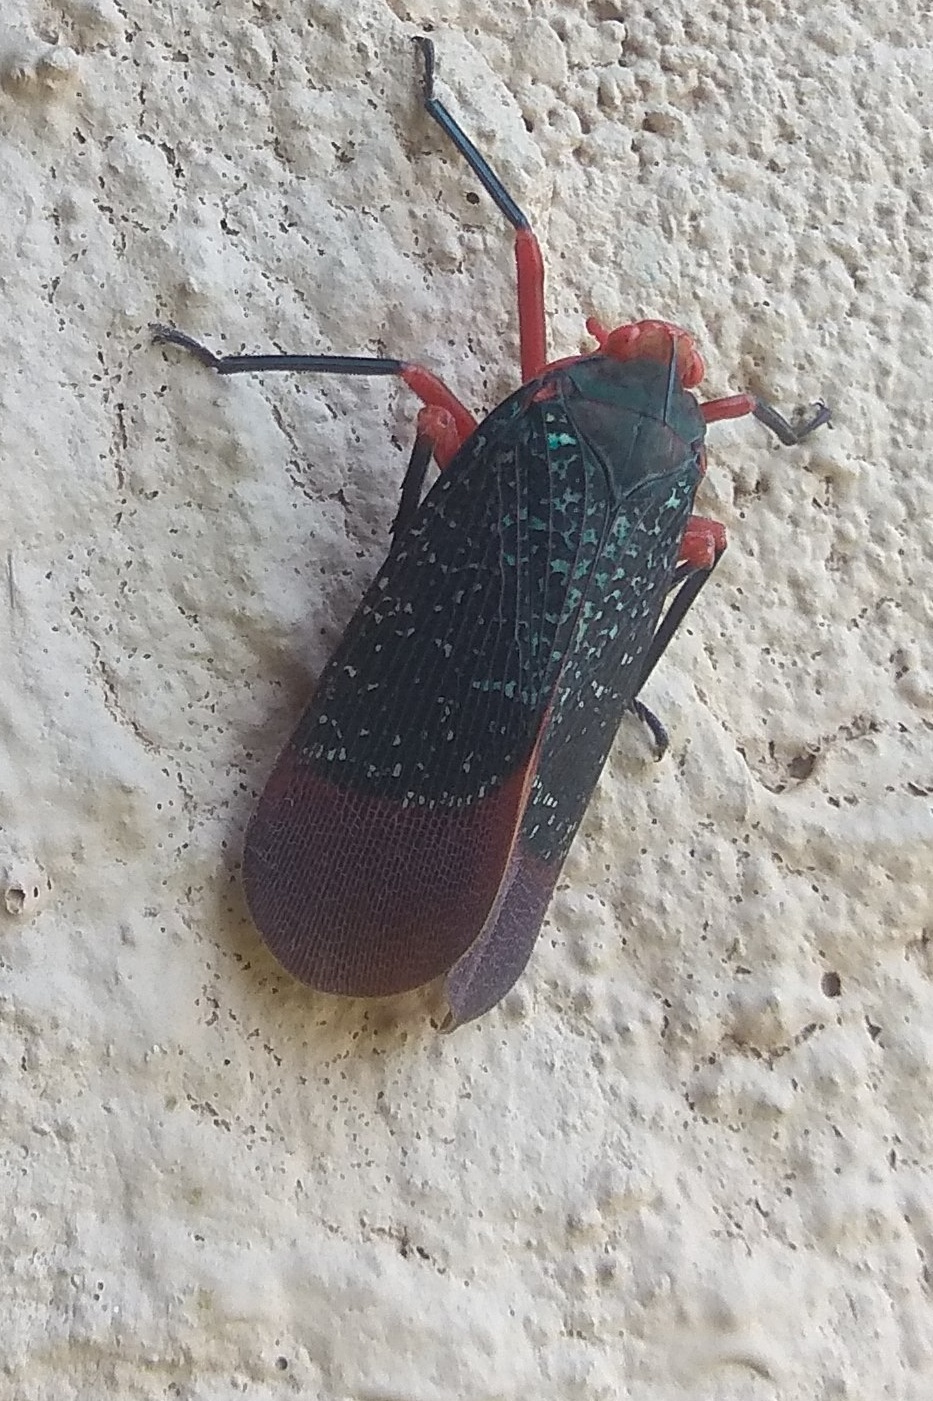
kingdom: Animalia
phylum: Arthropoda
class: Insecta
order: Hemiptera
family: Fulgoridae
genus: Kalidasa
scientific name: Kalidasa lanata
